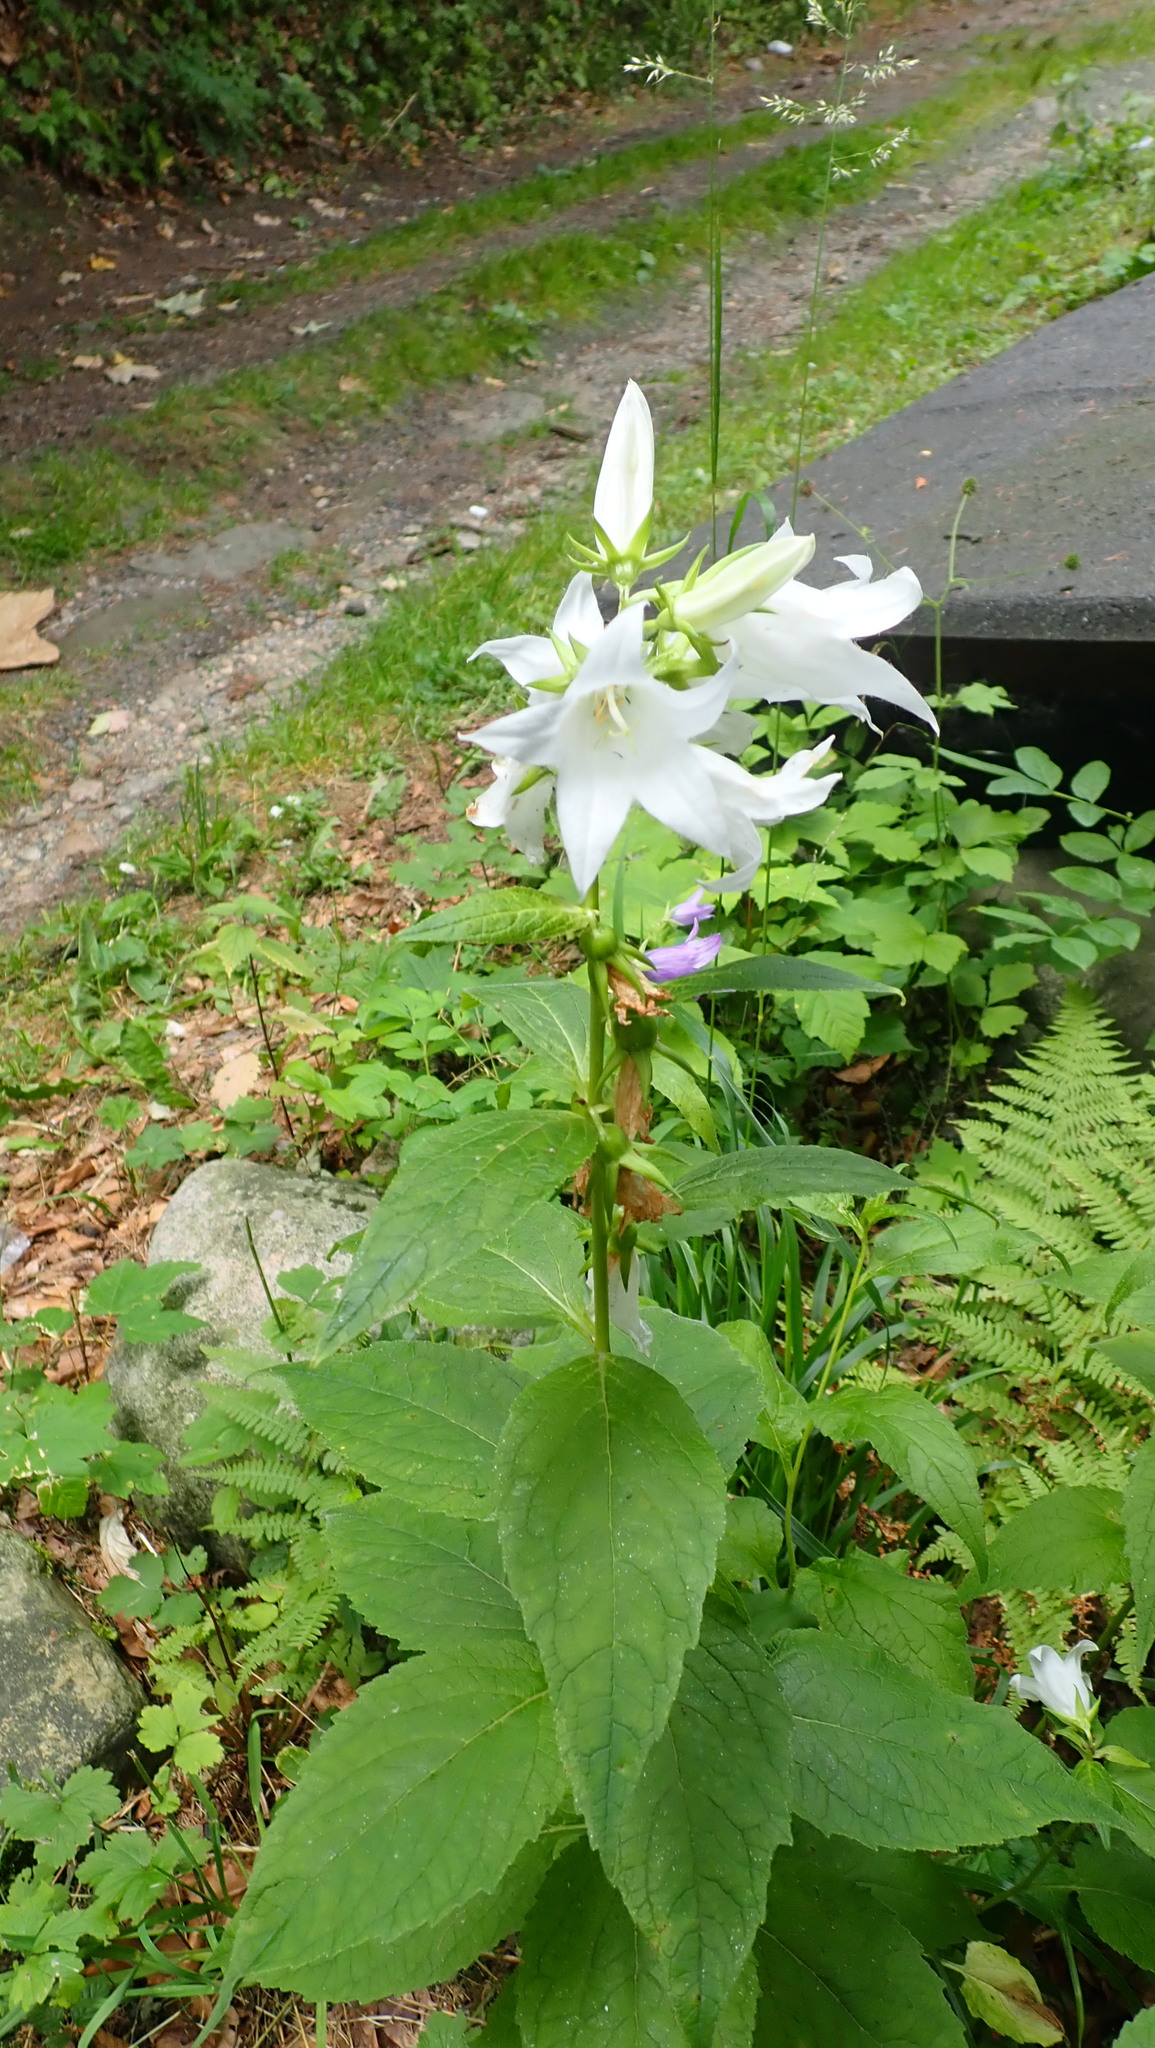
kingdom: Plantae
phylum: Tracheophyta
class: Magnoliopsida
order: Asterales
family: Campanulaceae
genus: Campanula
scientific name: Campanula latifolia
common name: Giant bellflower
